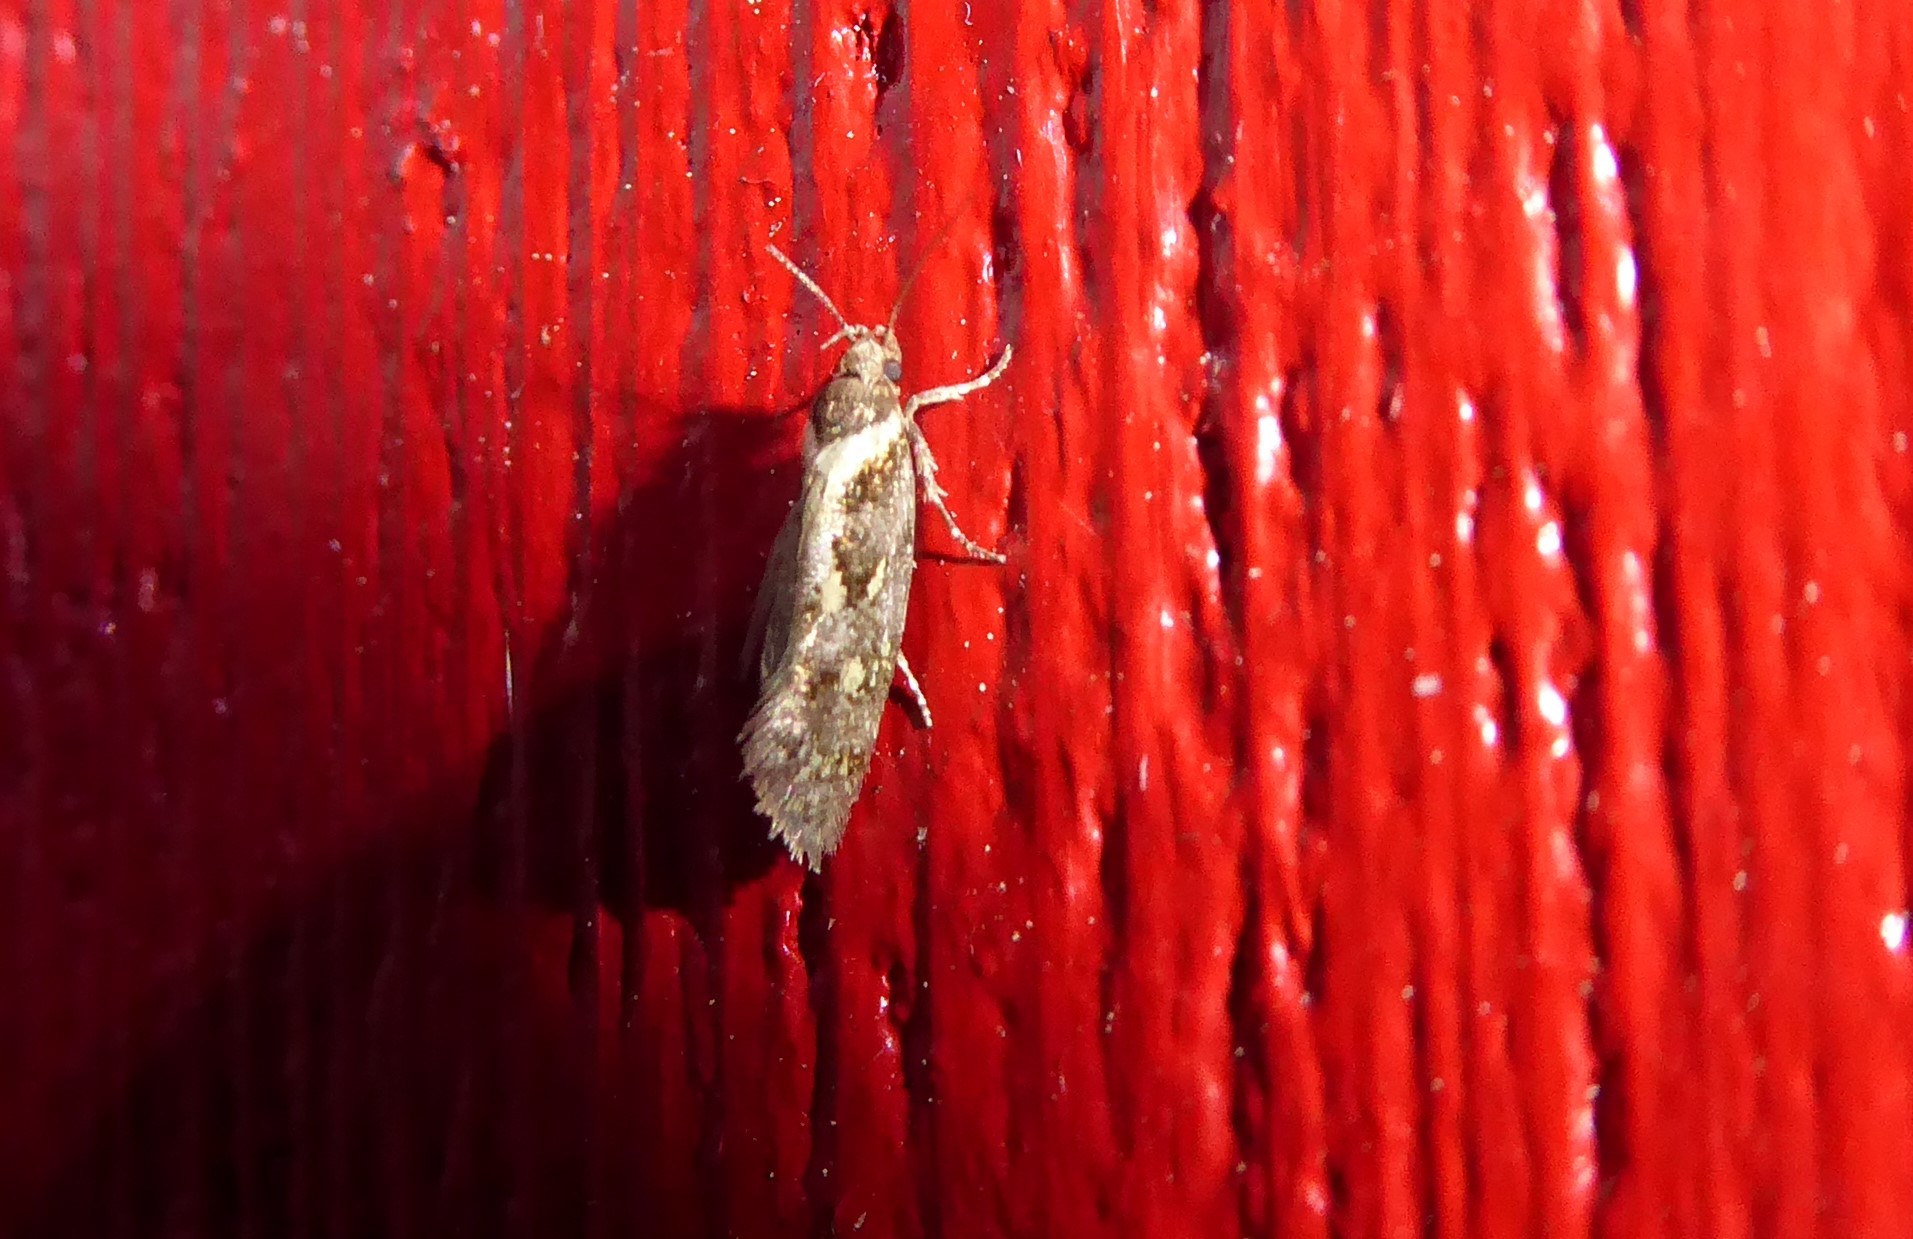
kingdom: Animalia
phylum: Arthropoda
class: Insecta
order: Lepidoptera
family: Oecophoridae
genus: Tingena
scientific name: Tingena lassa
